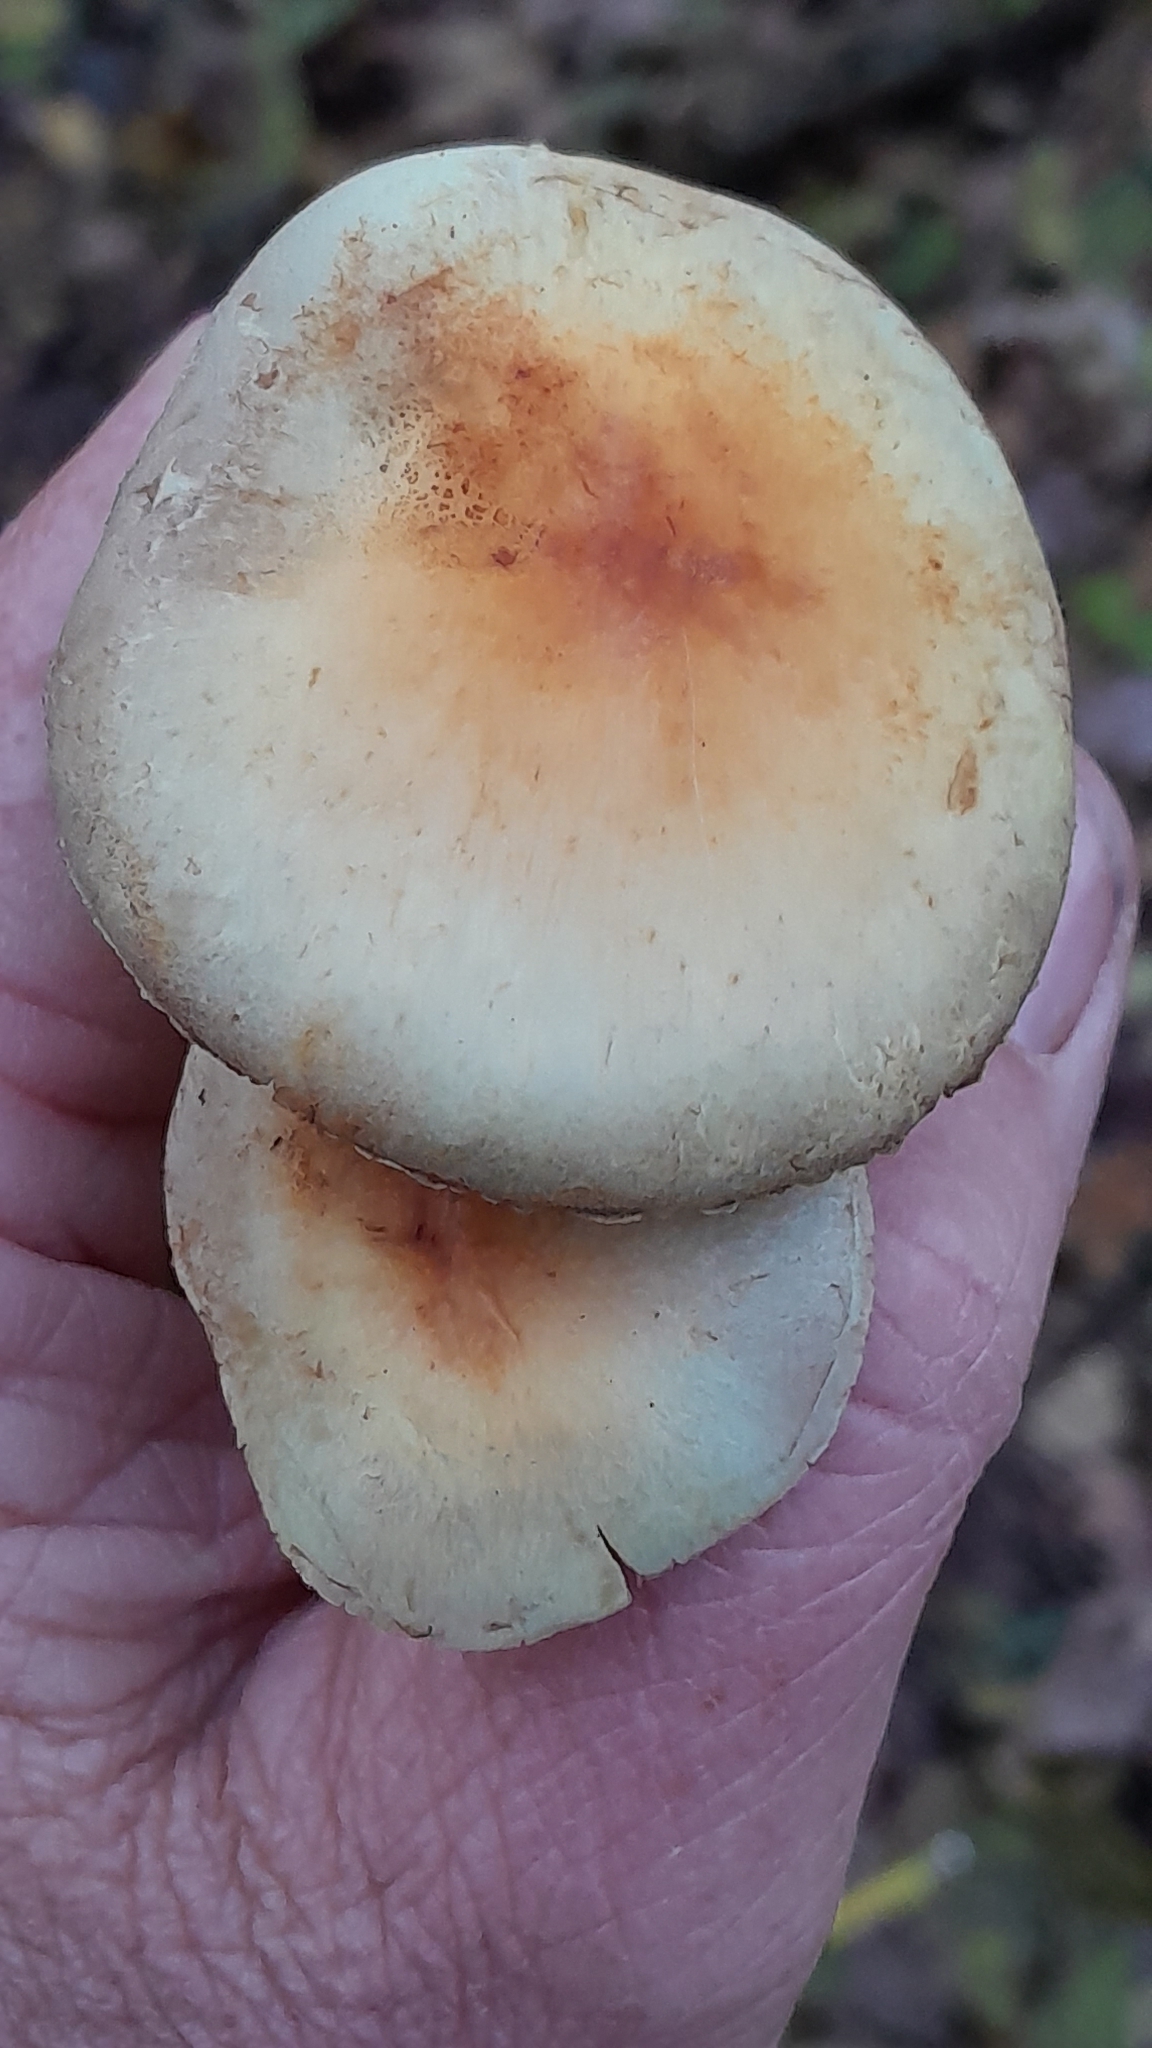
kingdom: Fungi
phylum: Basidiomycota
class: Agaricomycetes
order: Agaricales
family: Strophariaceae
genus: Hypholoma
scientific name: Hypholoma fasciculare
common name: Sulphur tuft
